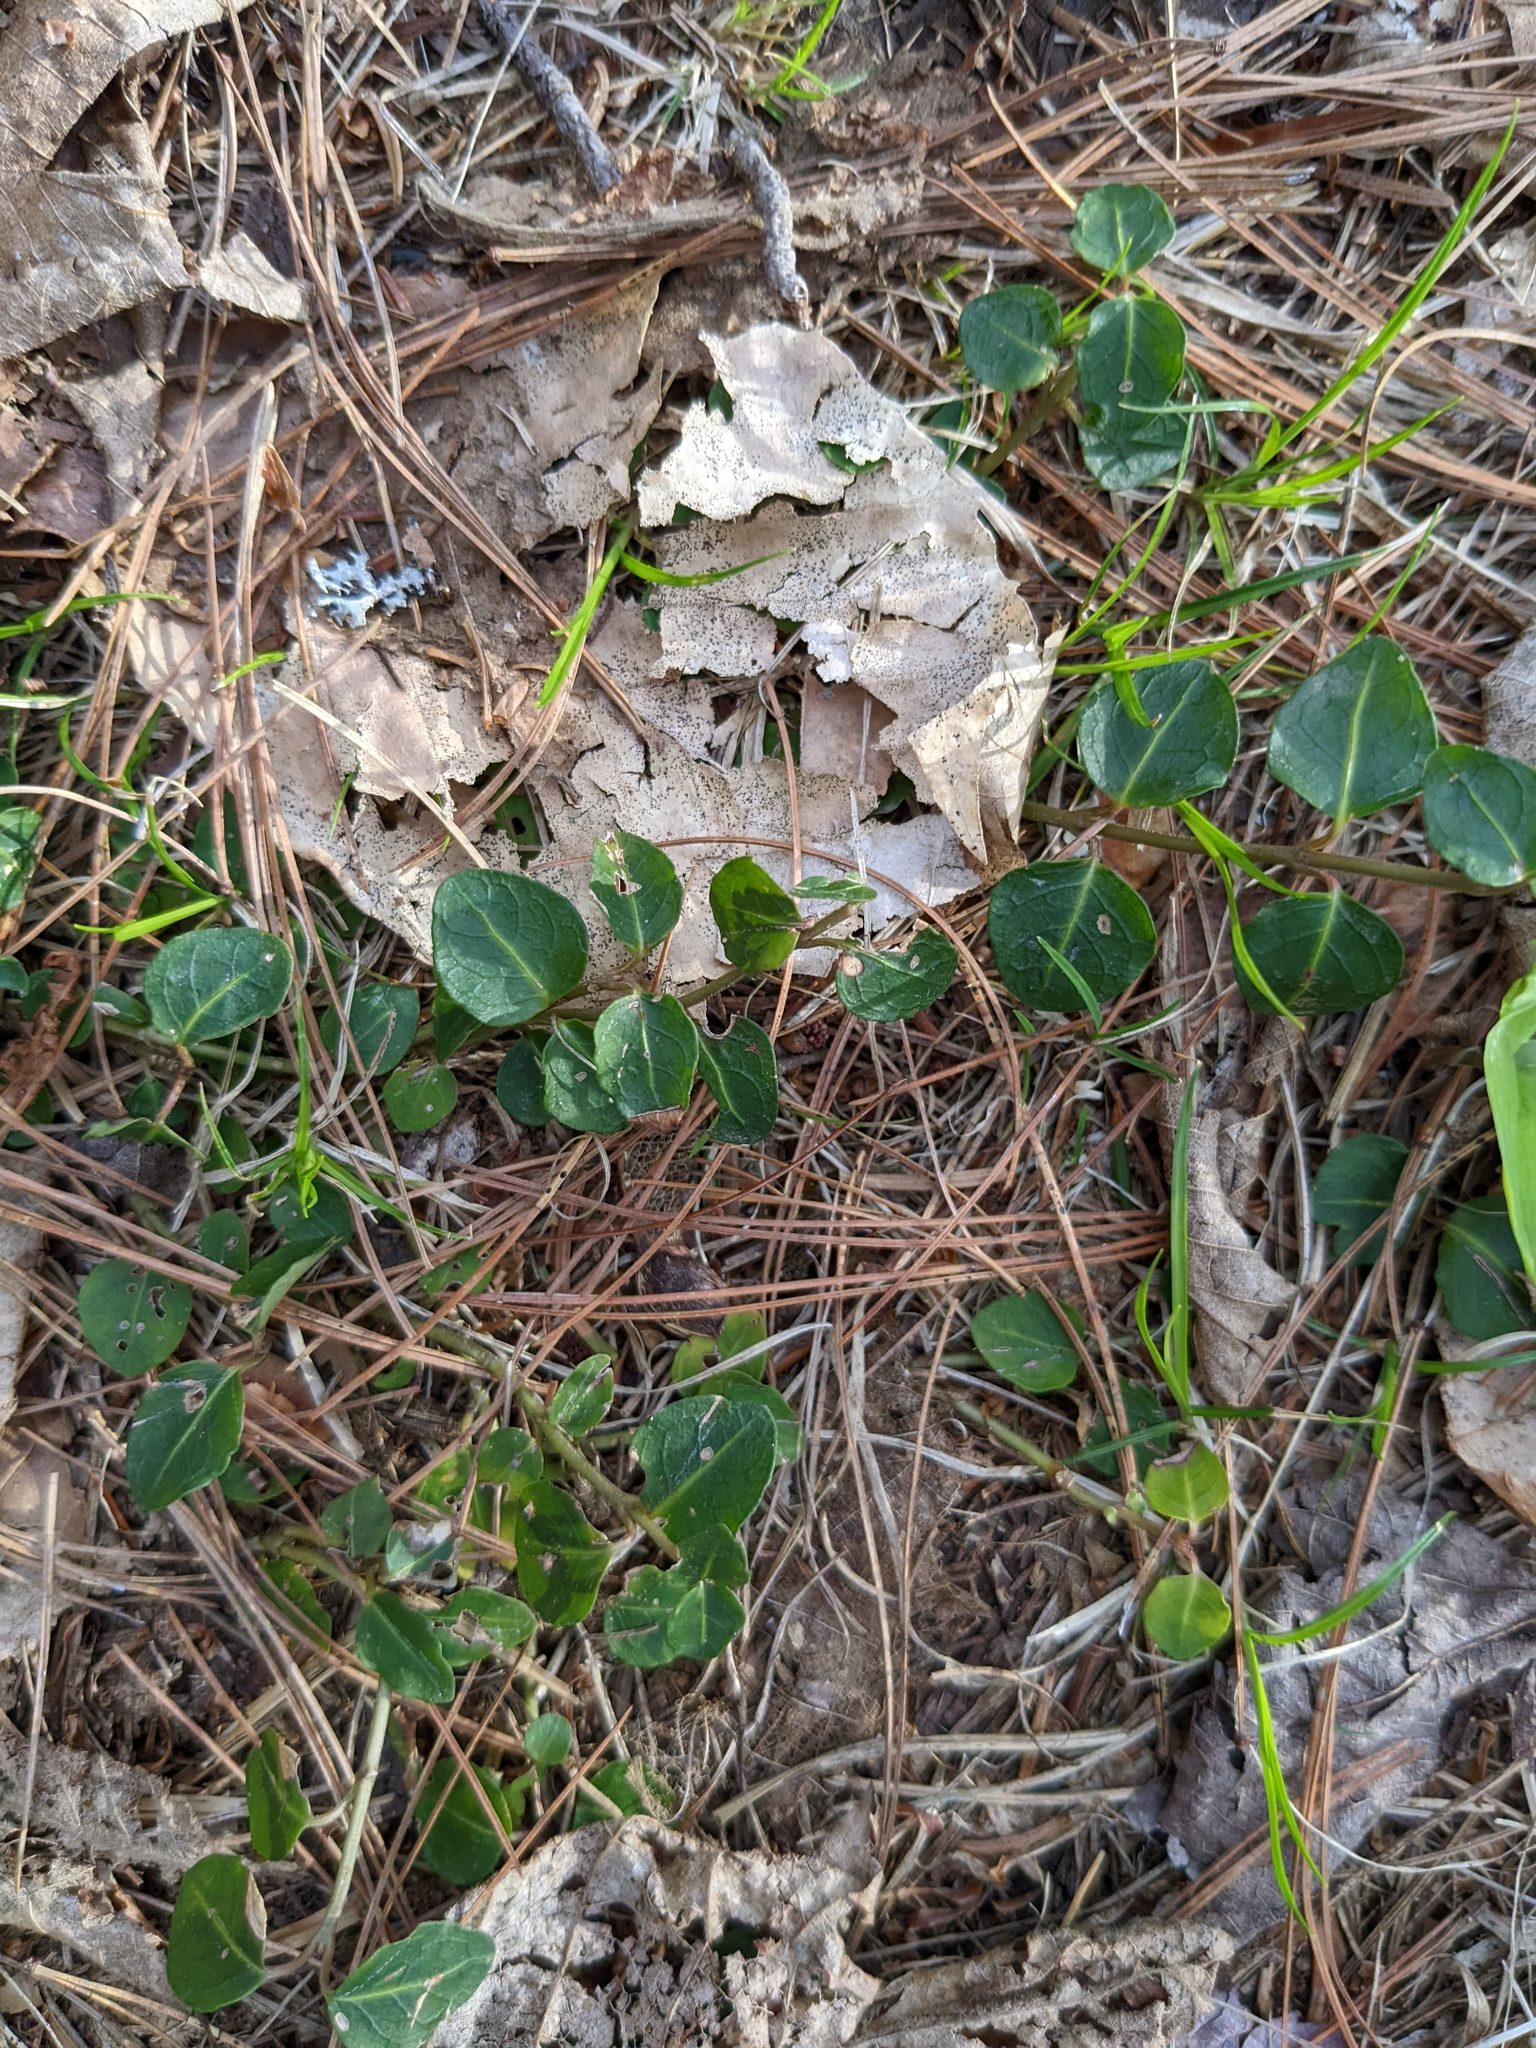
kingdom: Plantae
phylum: Tracheophyta
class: Magnoliopsida
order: Gentianales
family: Rubiaceae
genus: Mitchella
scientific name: Mitchella repens
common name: Partridge-berry
